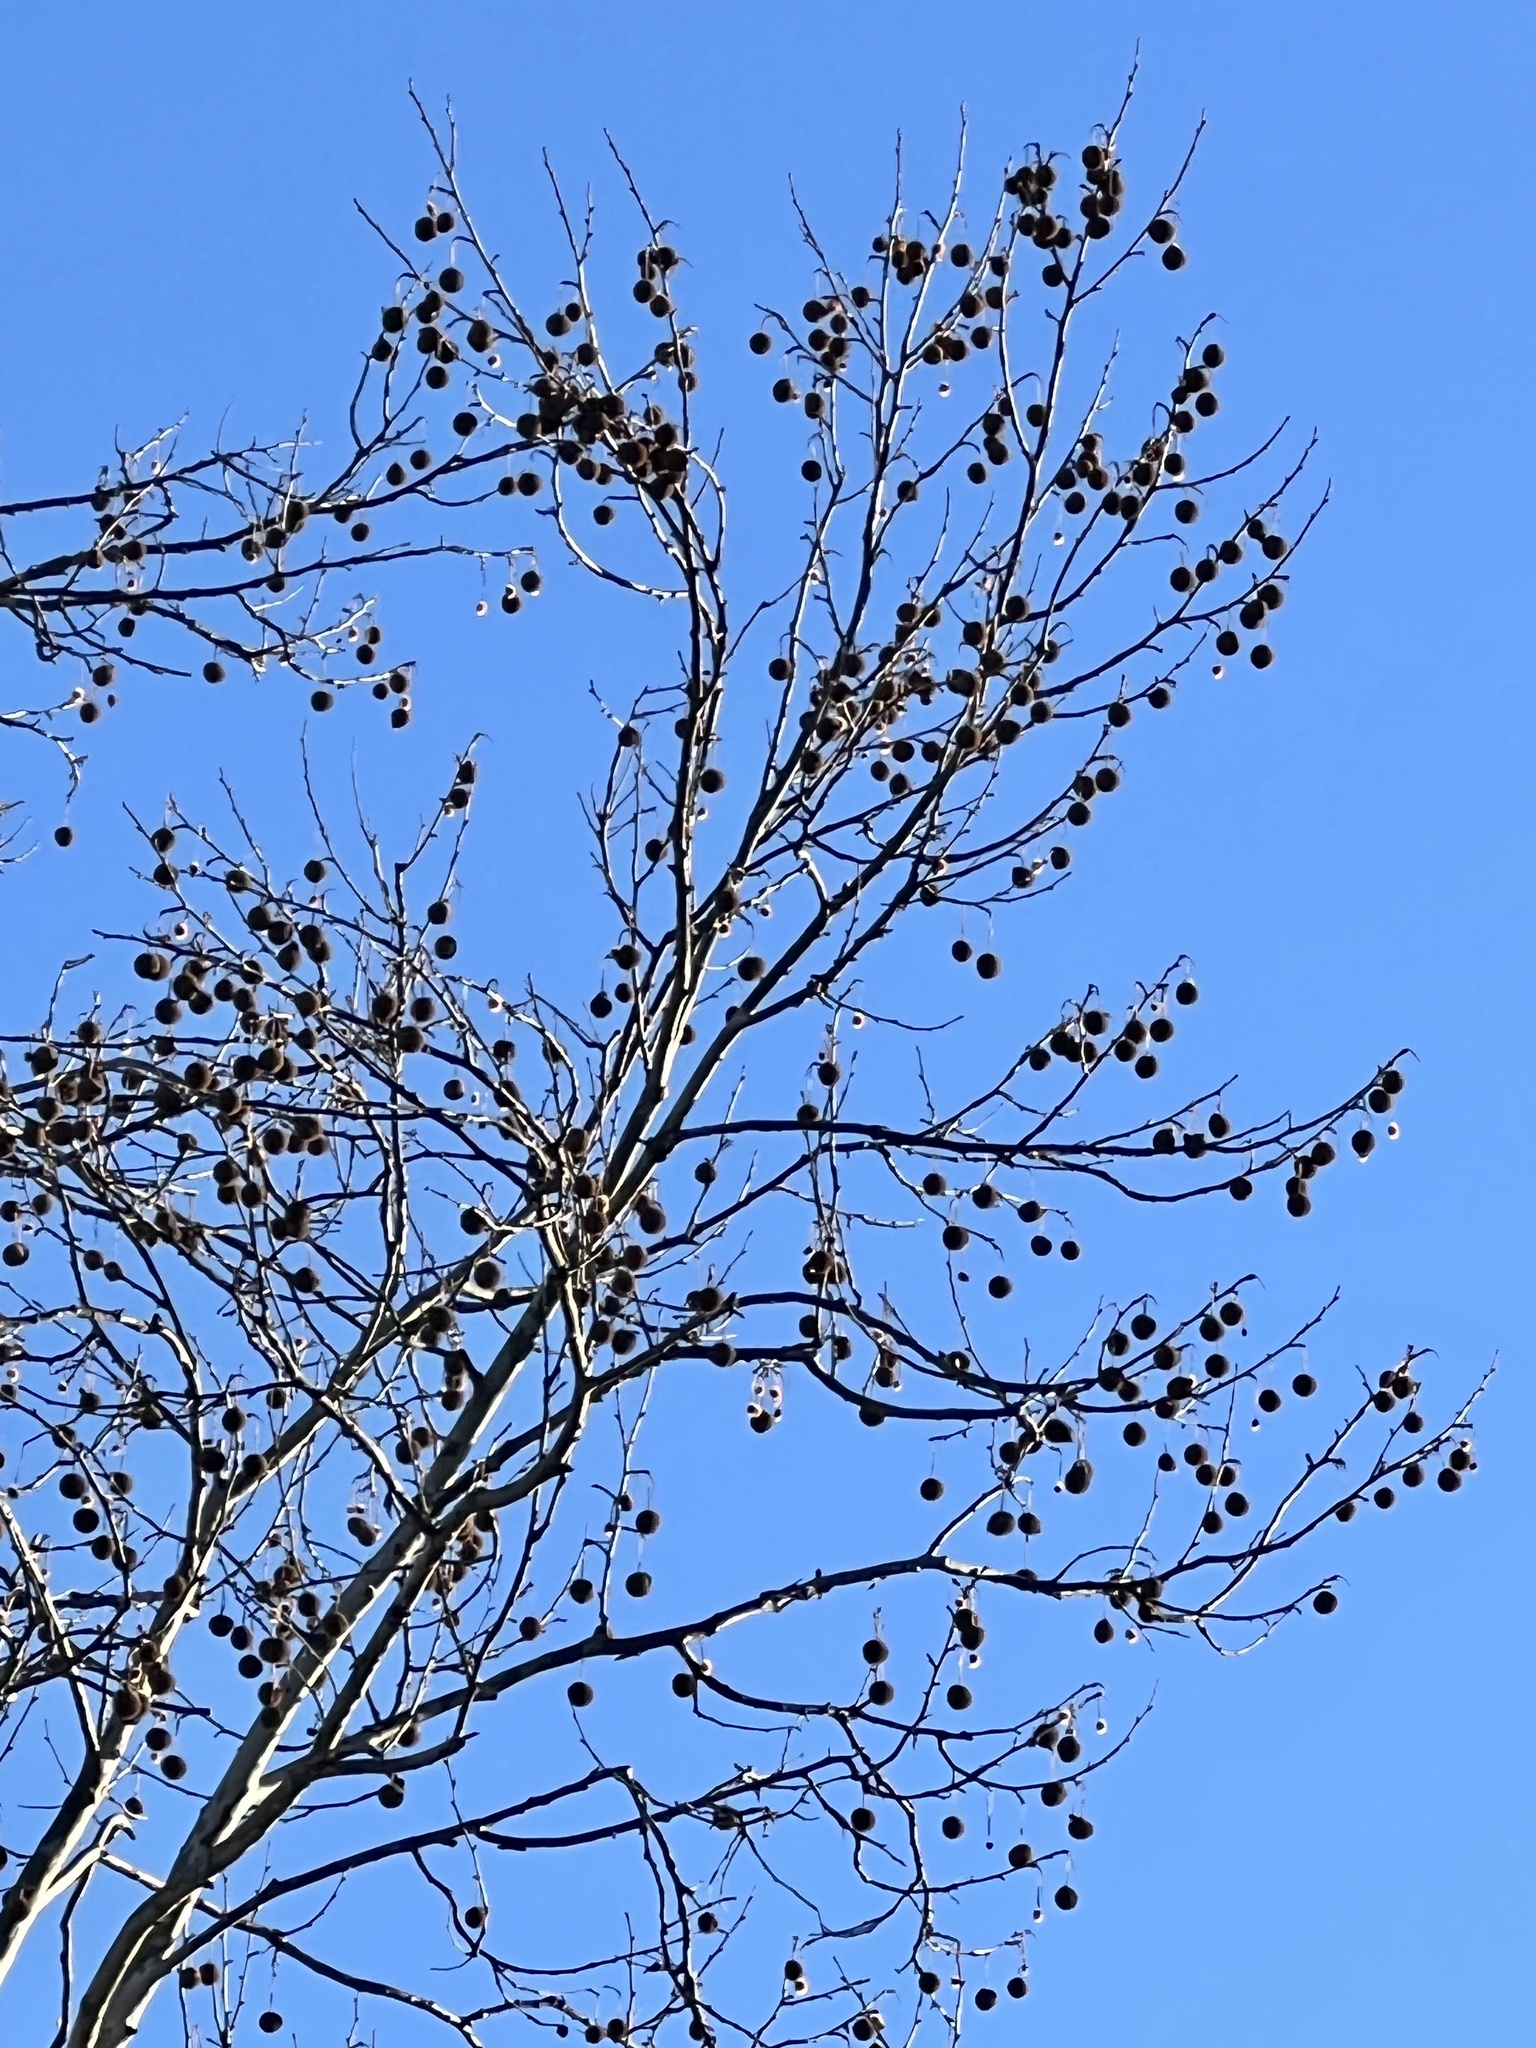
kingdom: Plantae
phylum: Tracheophyta
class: Magnoliopsida
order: Proteales
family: Platanaceae
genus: Platanus
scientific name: Platanus occidentalis
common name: American sycamore
